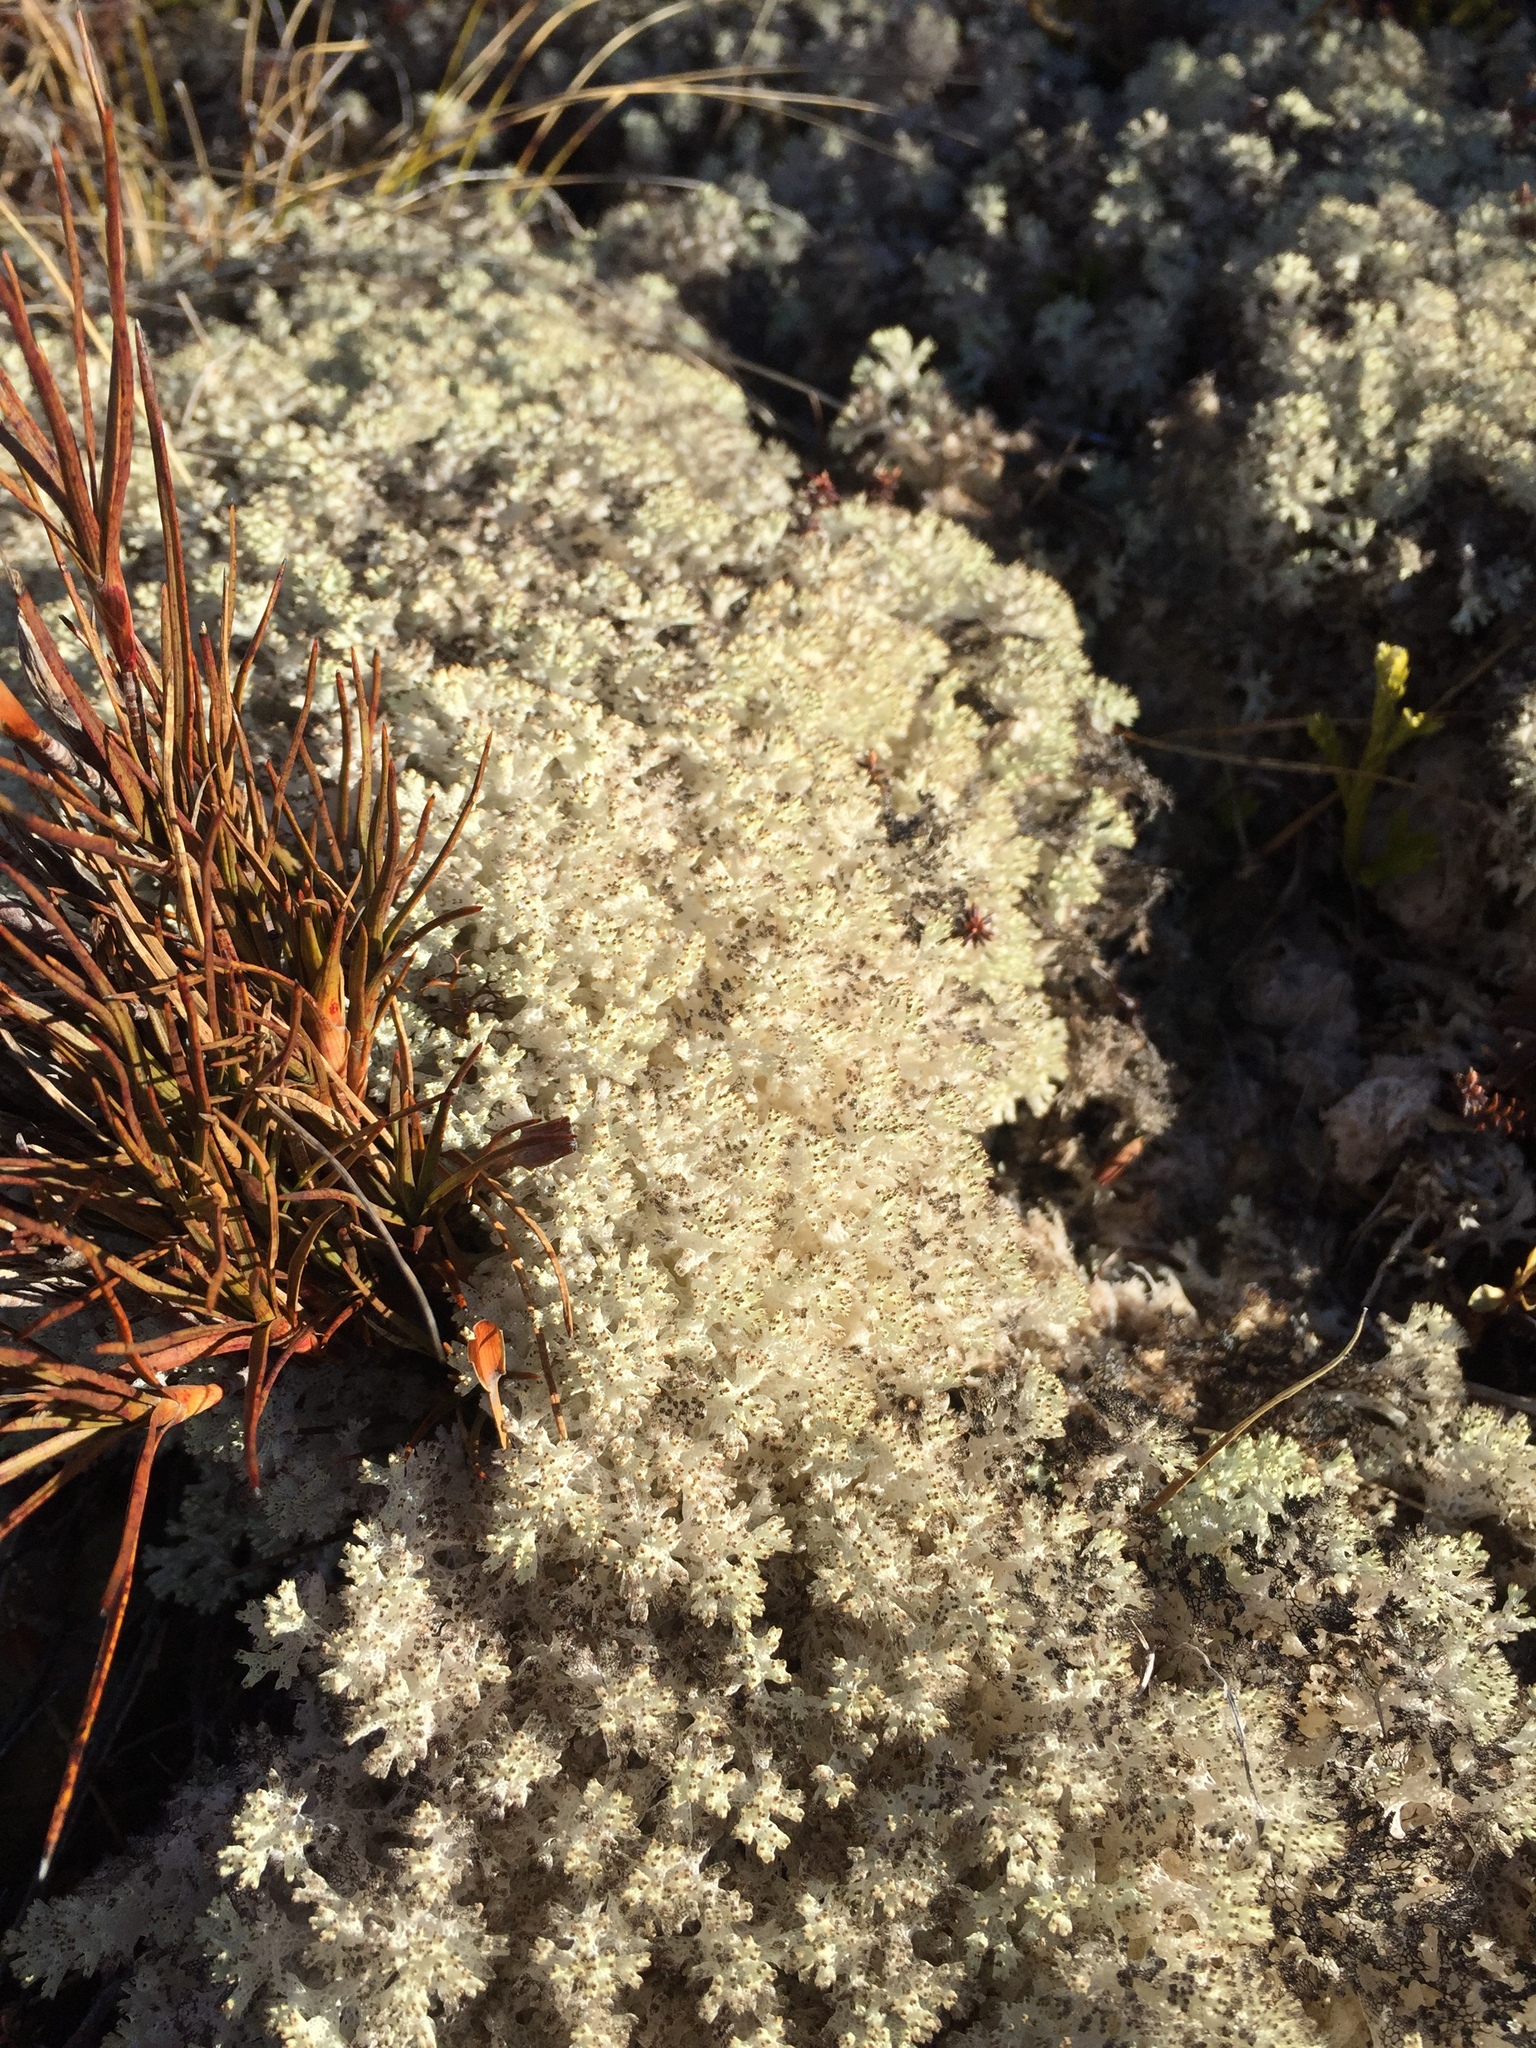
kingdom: Fungi
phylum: Ascomycota
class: Lecanoromycetes
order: Lecanorales
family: Cladoniaceae
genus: Pulchrocladia
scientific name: Pulchrocladia retipora
